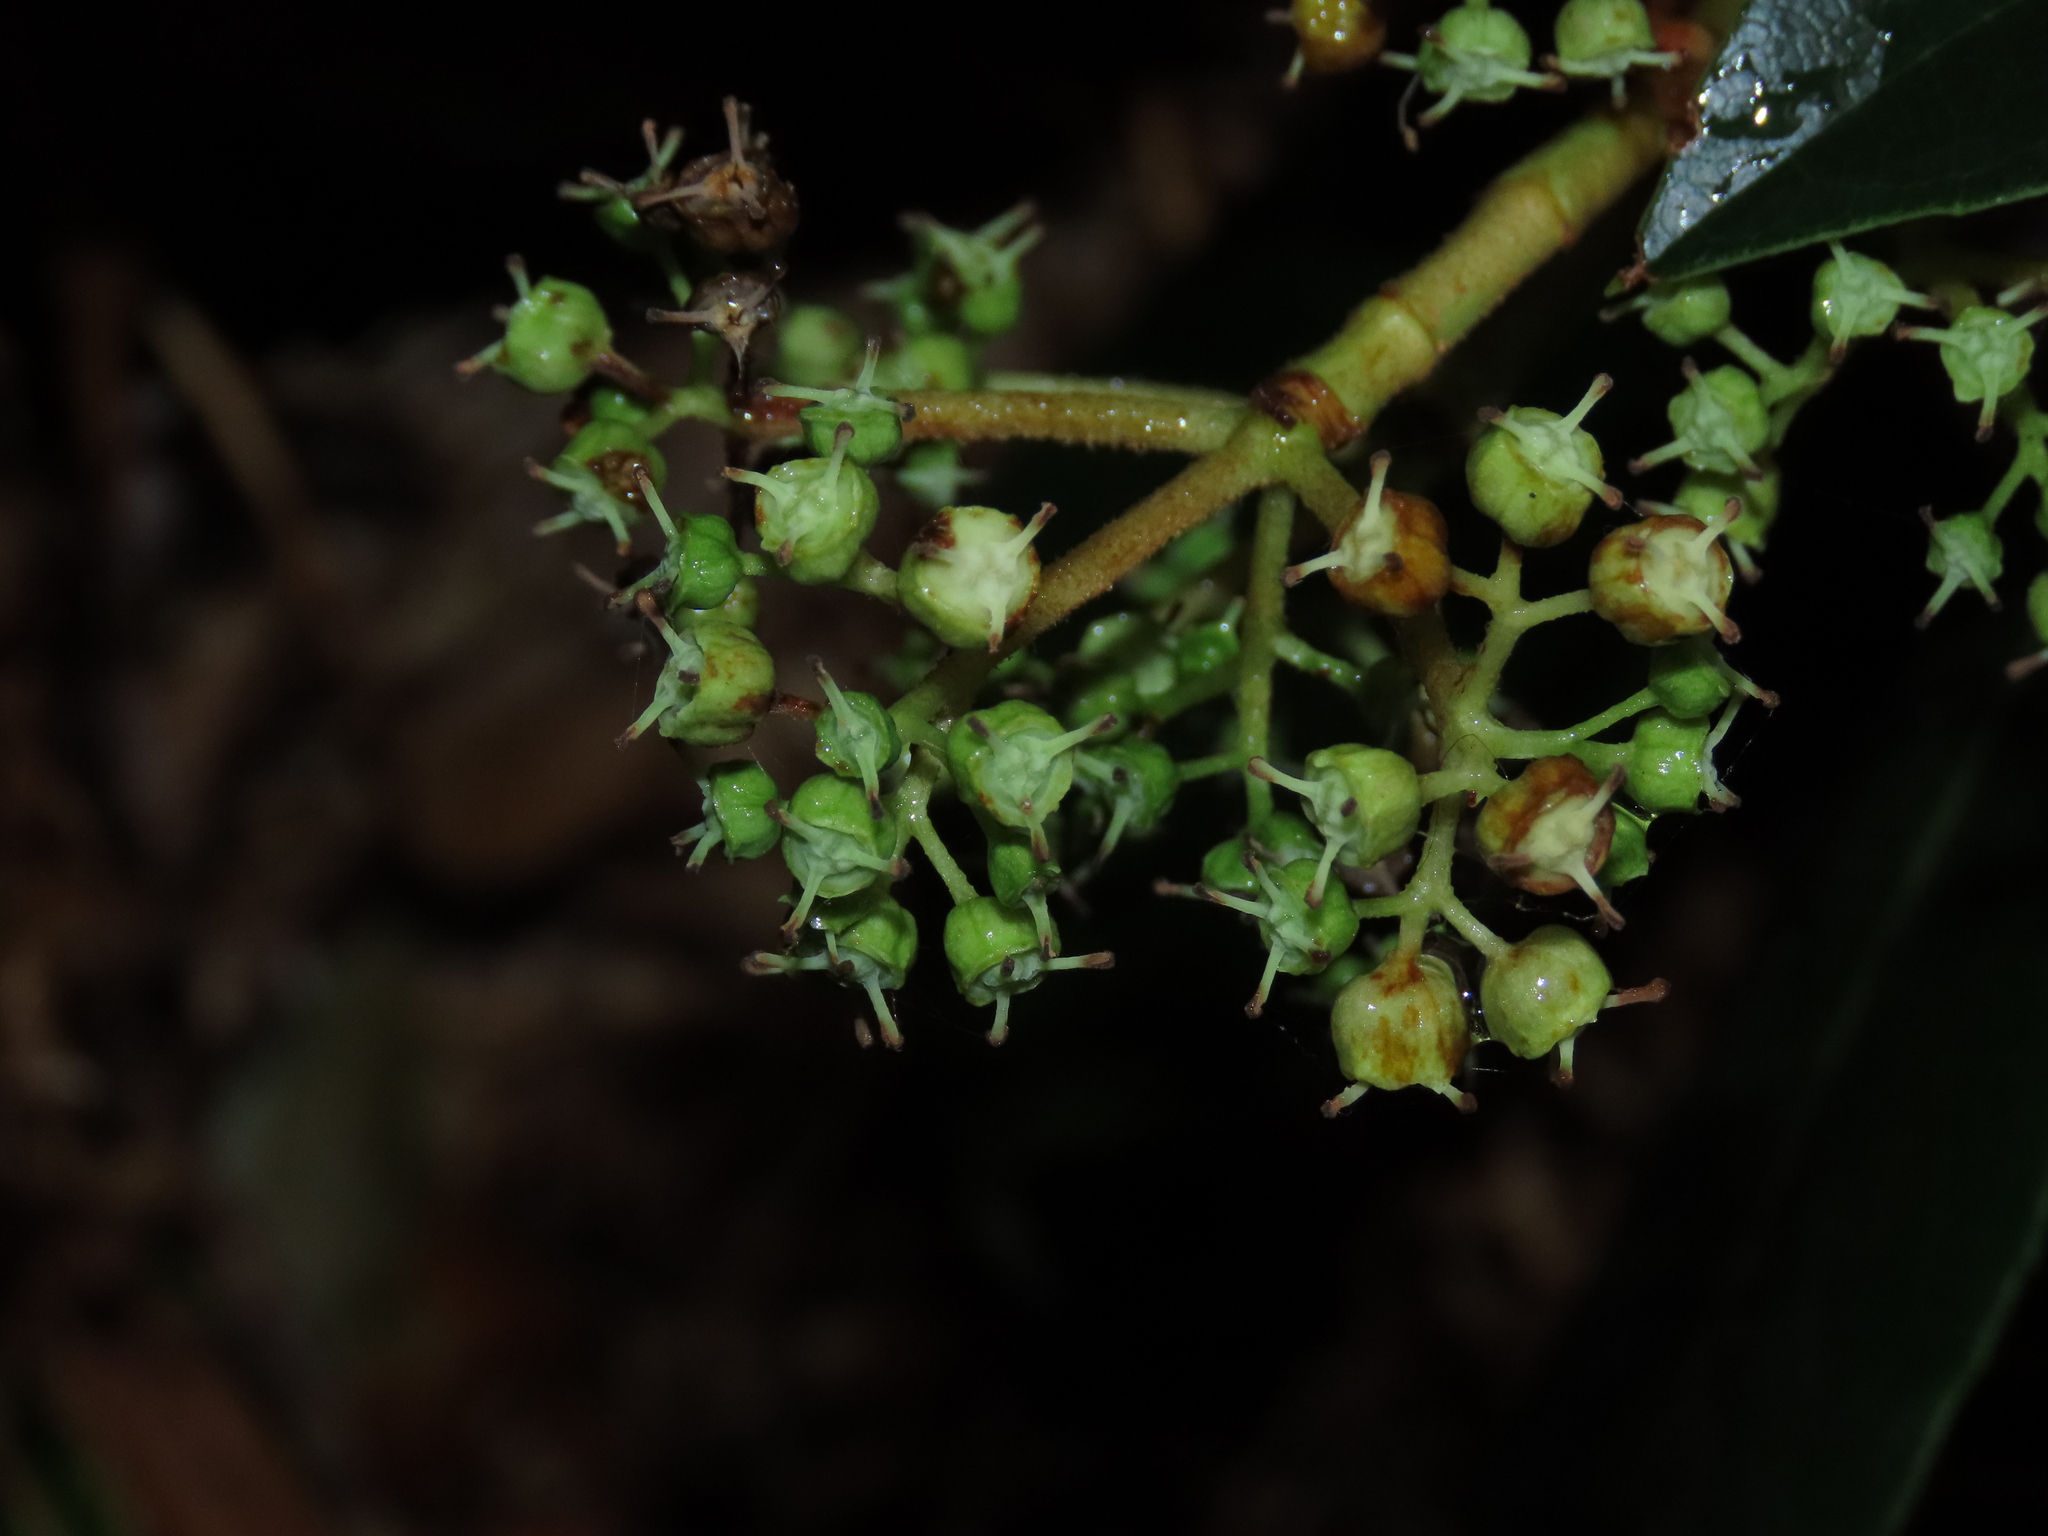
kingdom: Plantae
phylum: Tracheophyta
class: Magnoliopsida
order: Cornales
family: Hydrangeaceae
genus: Hydrangea
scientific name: Hydrangea serratifolia
